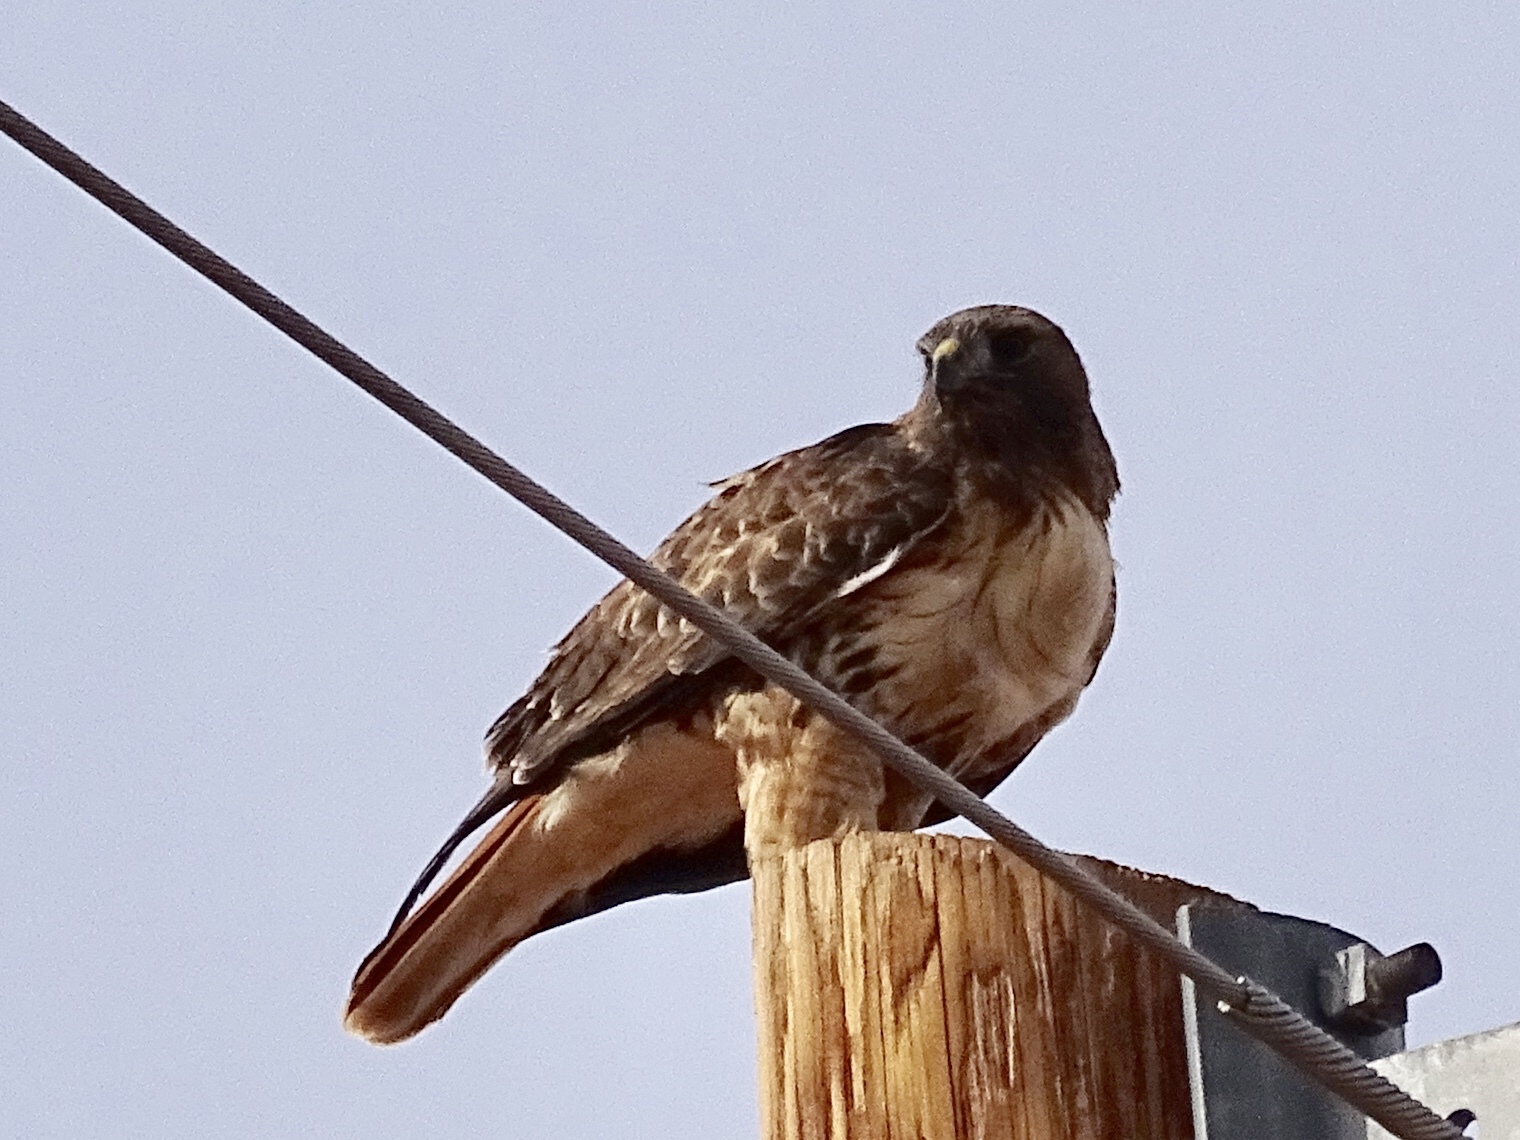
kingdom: Animalia
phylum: Chordata
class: Aves
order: Accipitriformes
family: Accipitridae
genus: Buteo
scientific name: Buteo jamaicensis
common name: Red-tailed hawk
